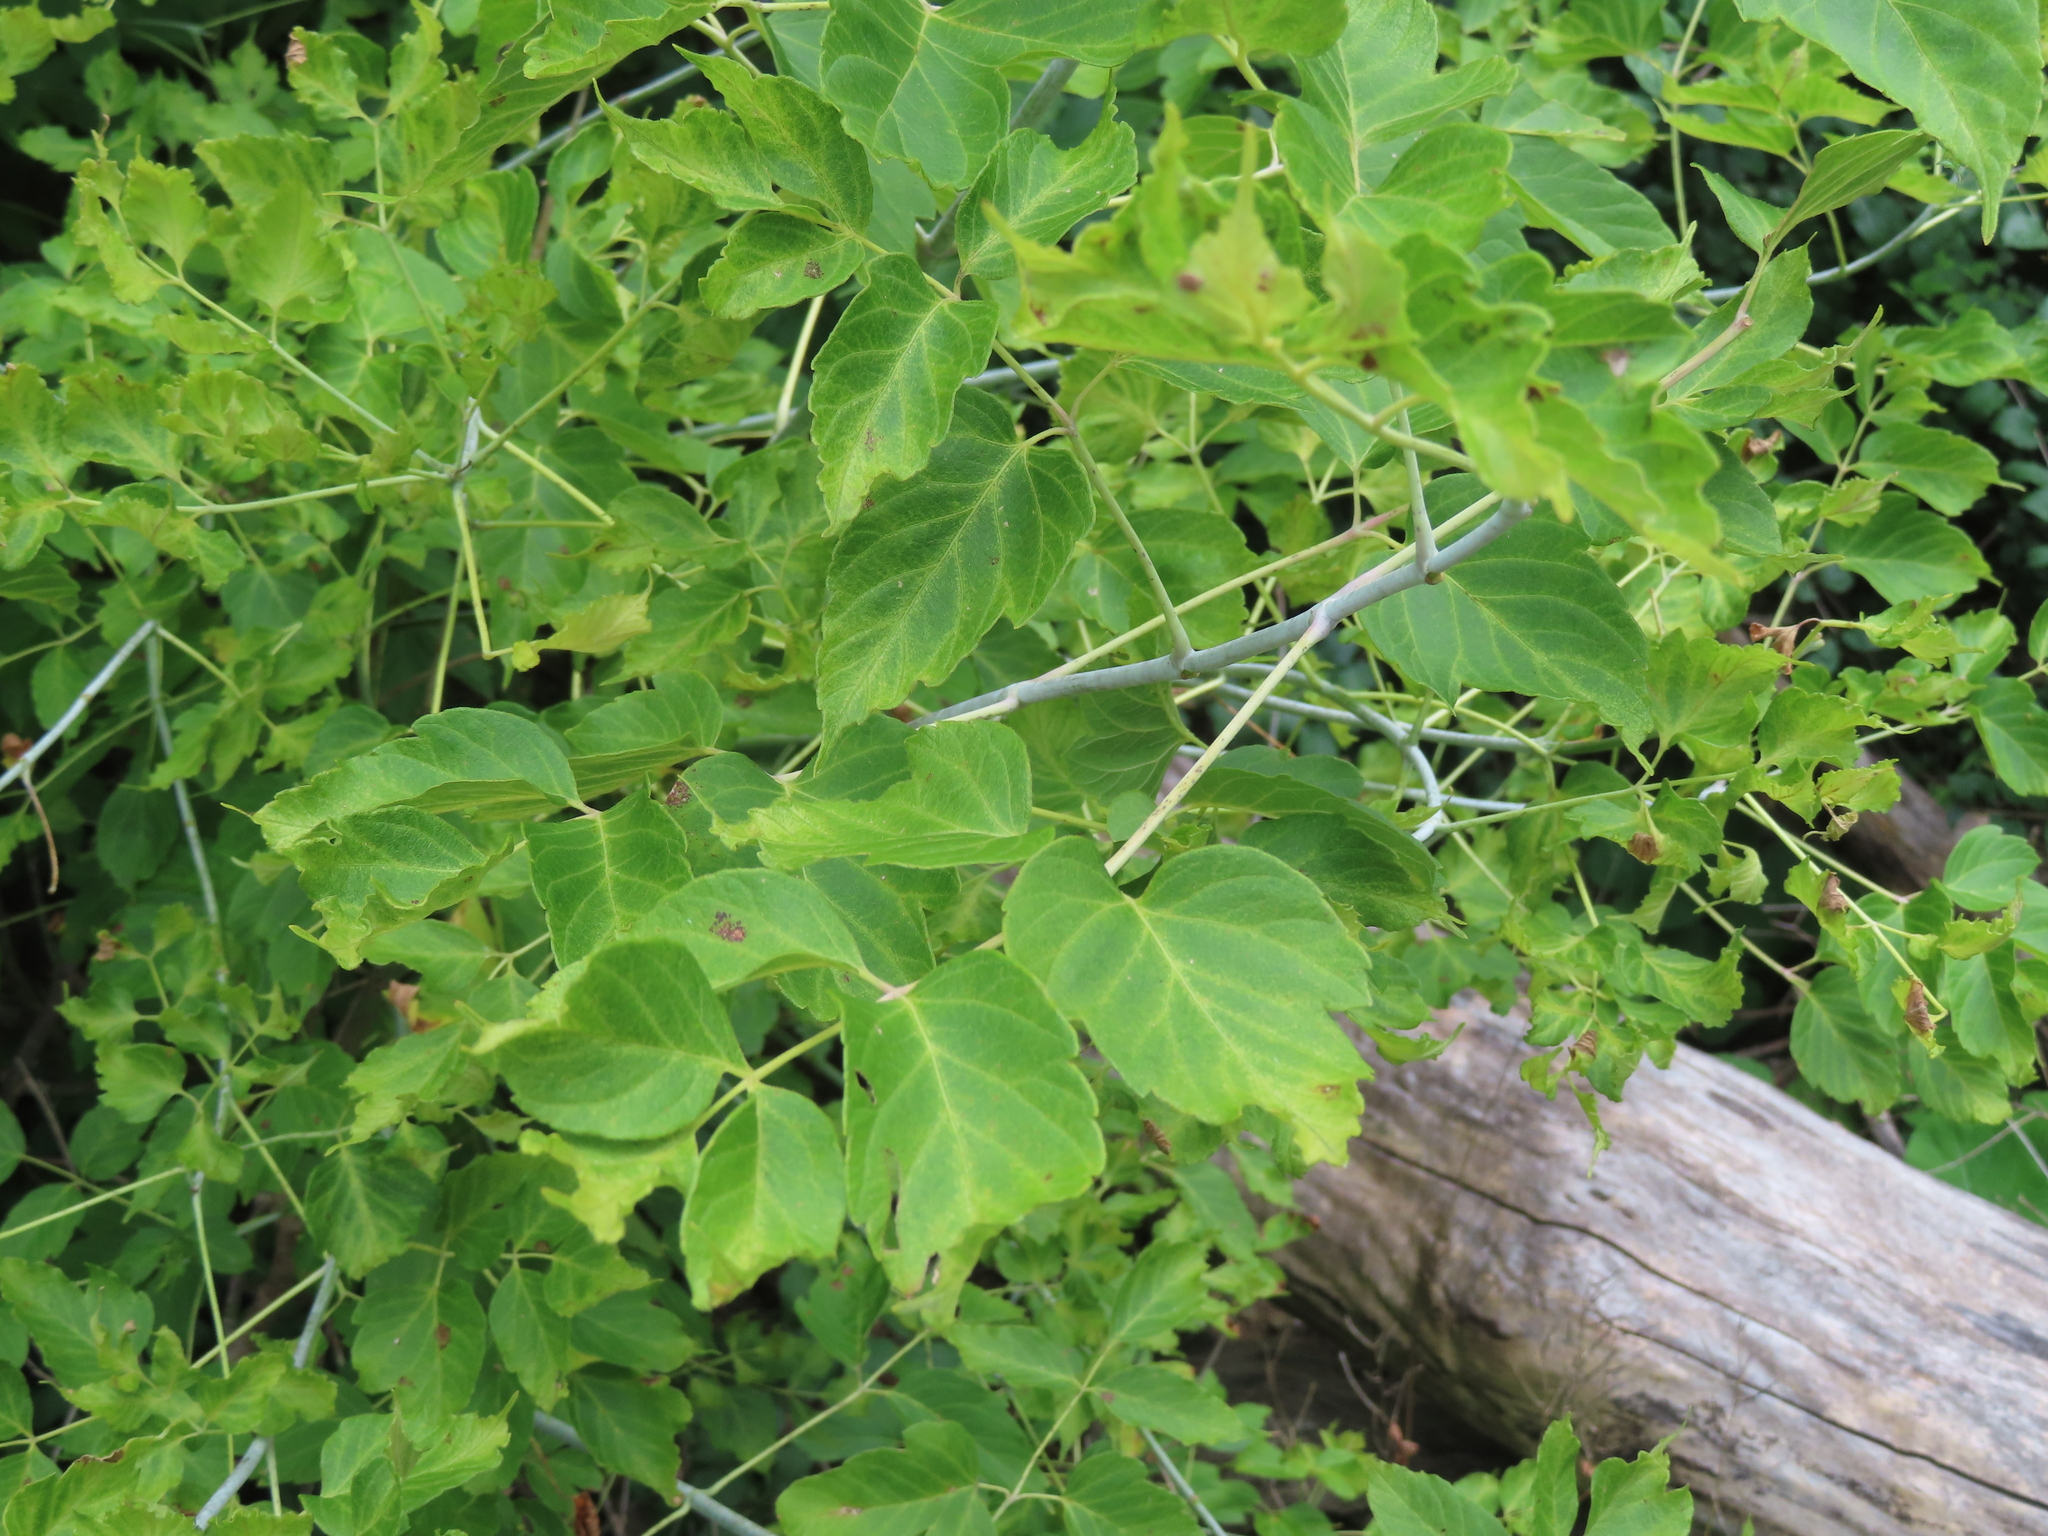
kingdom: Plantae
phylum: Tracheophyta
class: Magnoliopsida
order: Sapindales
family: Sapindaceae
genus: Acer
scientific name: Acer negundo
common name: Ashleaf maple
